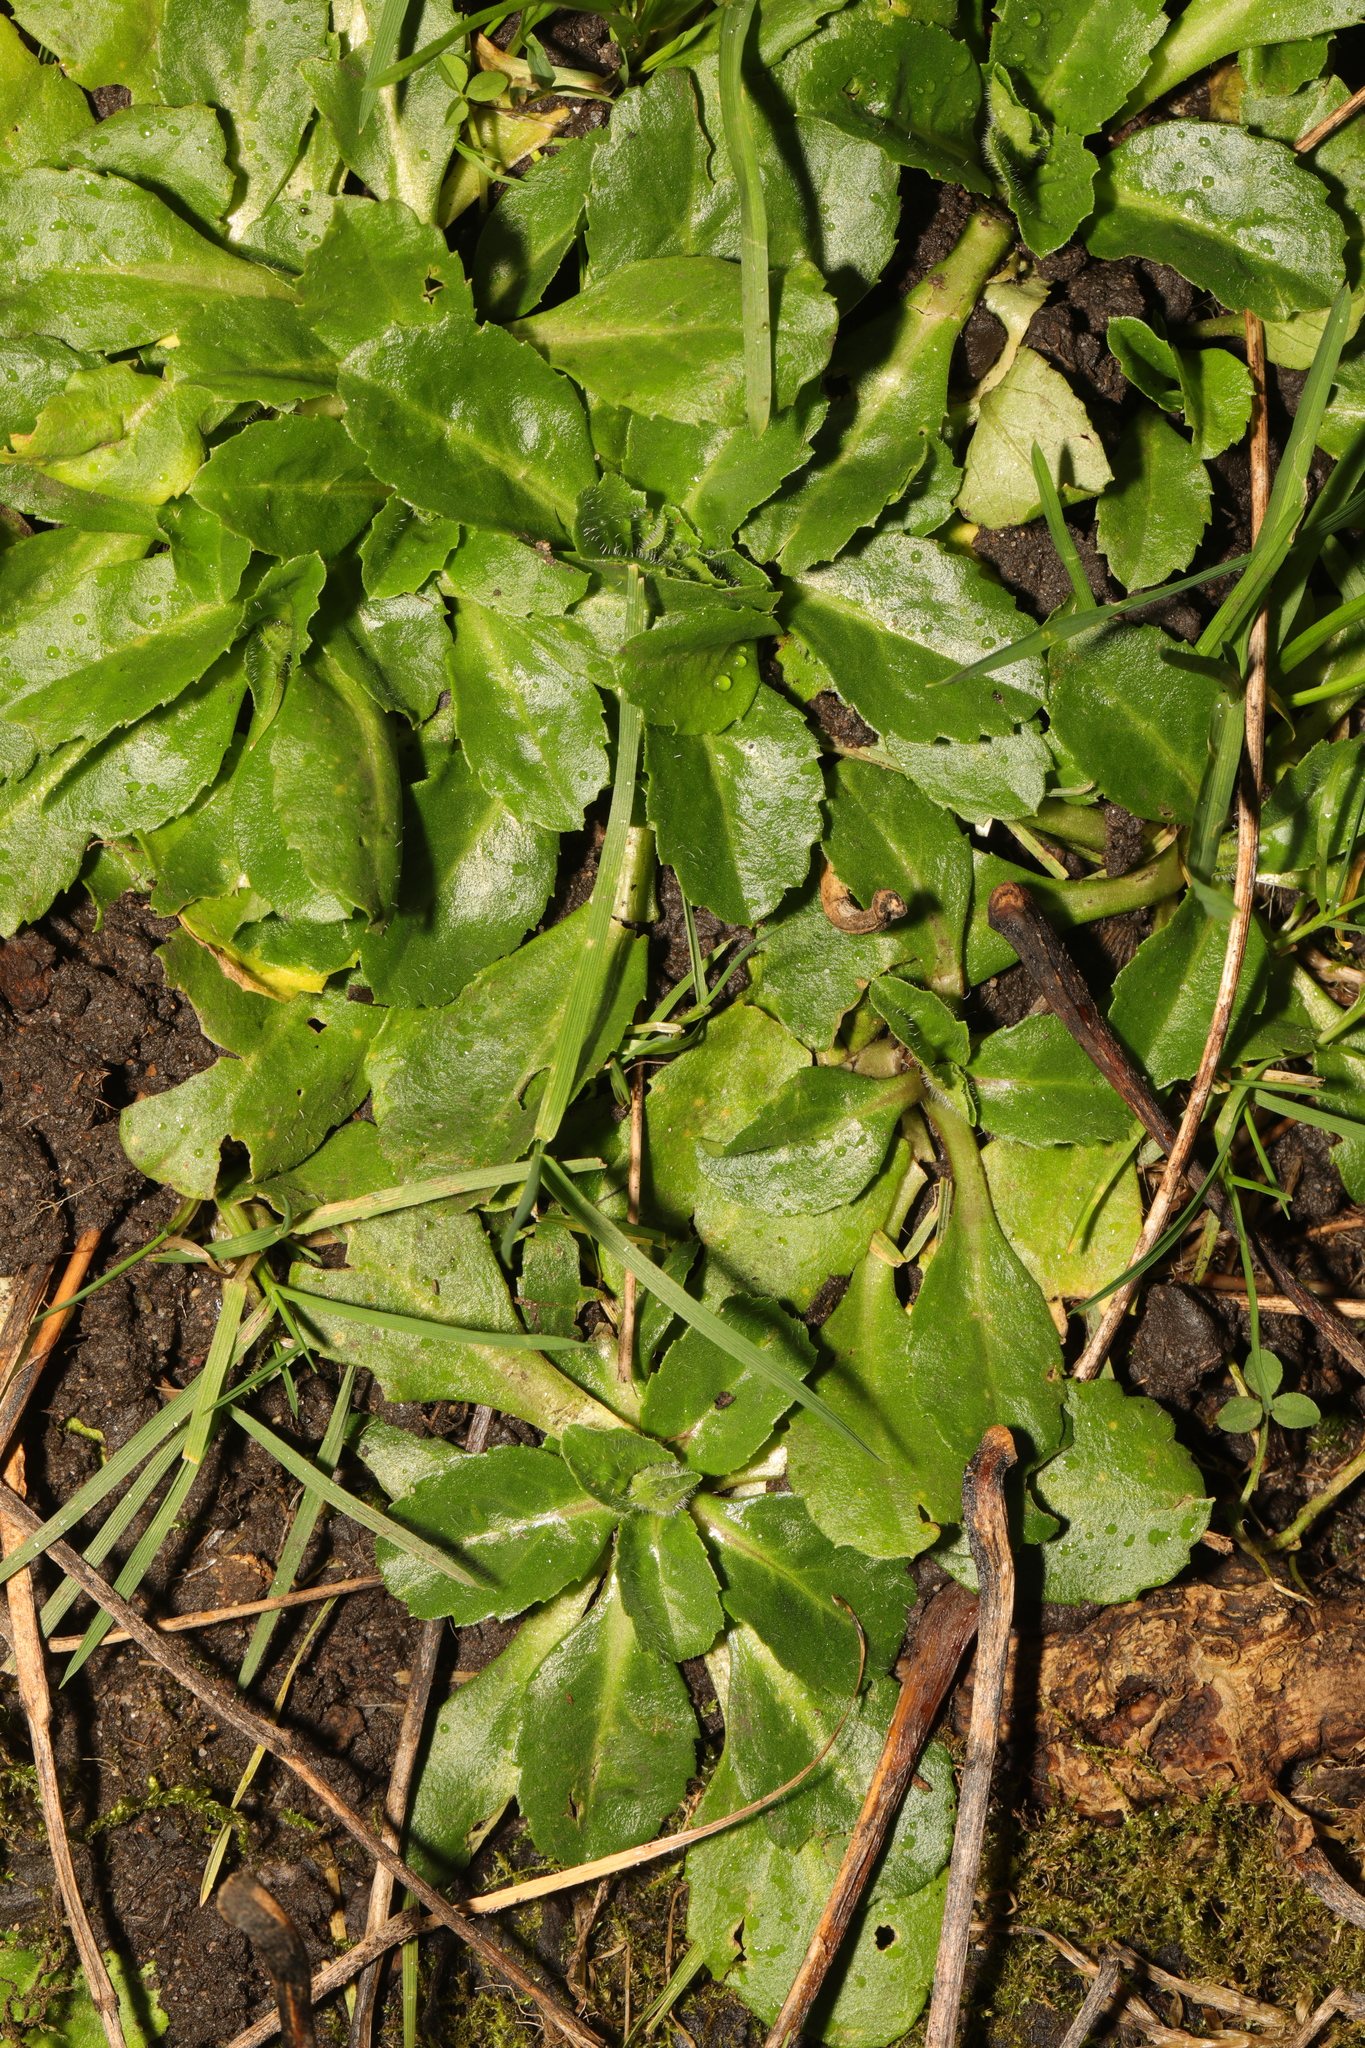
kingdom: Plantae
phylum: Tracheophyta
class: Magnoliopsida
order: Asterales
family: Asteraceae
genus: Bellis
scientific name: Bellis perennis
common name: Lawndaisy
